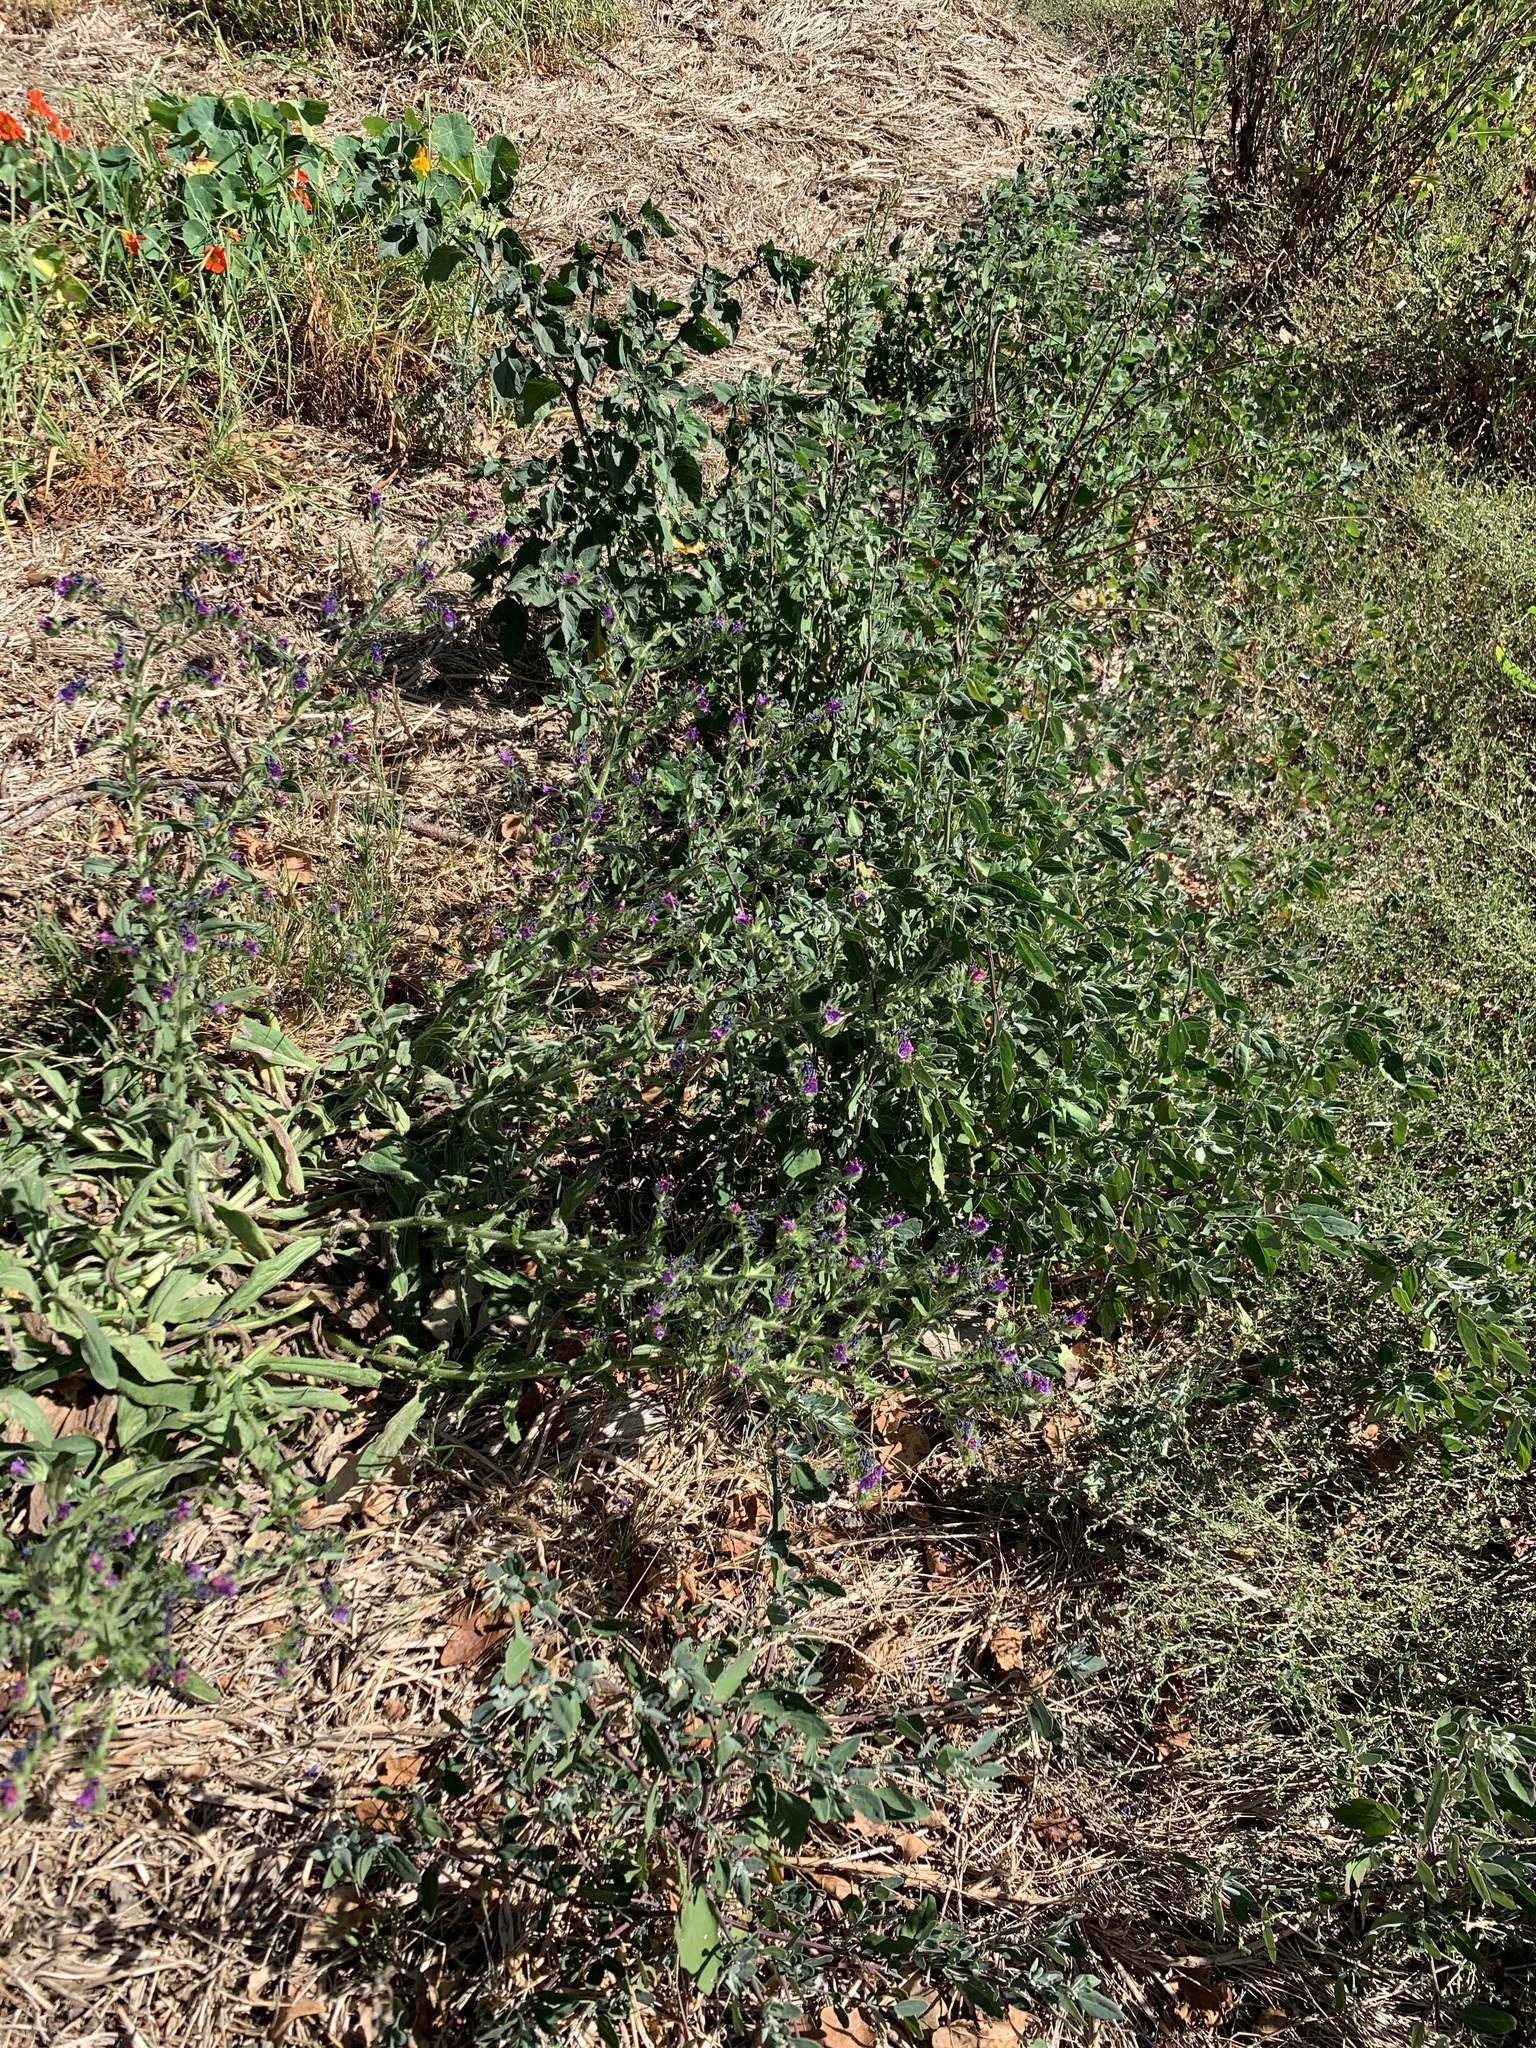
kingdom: Plantae
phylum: Tracheophyta
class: Magnoliopsida
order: Boraginales
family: Boraginaceae
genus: Echium
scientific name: Echium plantagineum
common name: Purple viper's-bugloss
